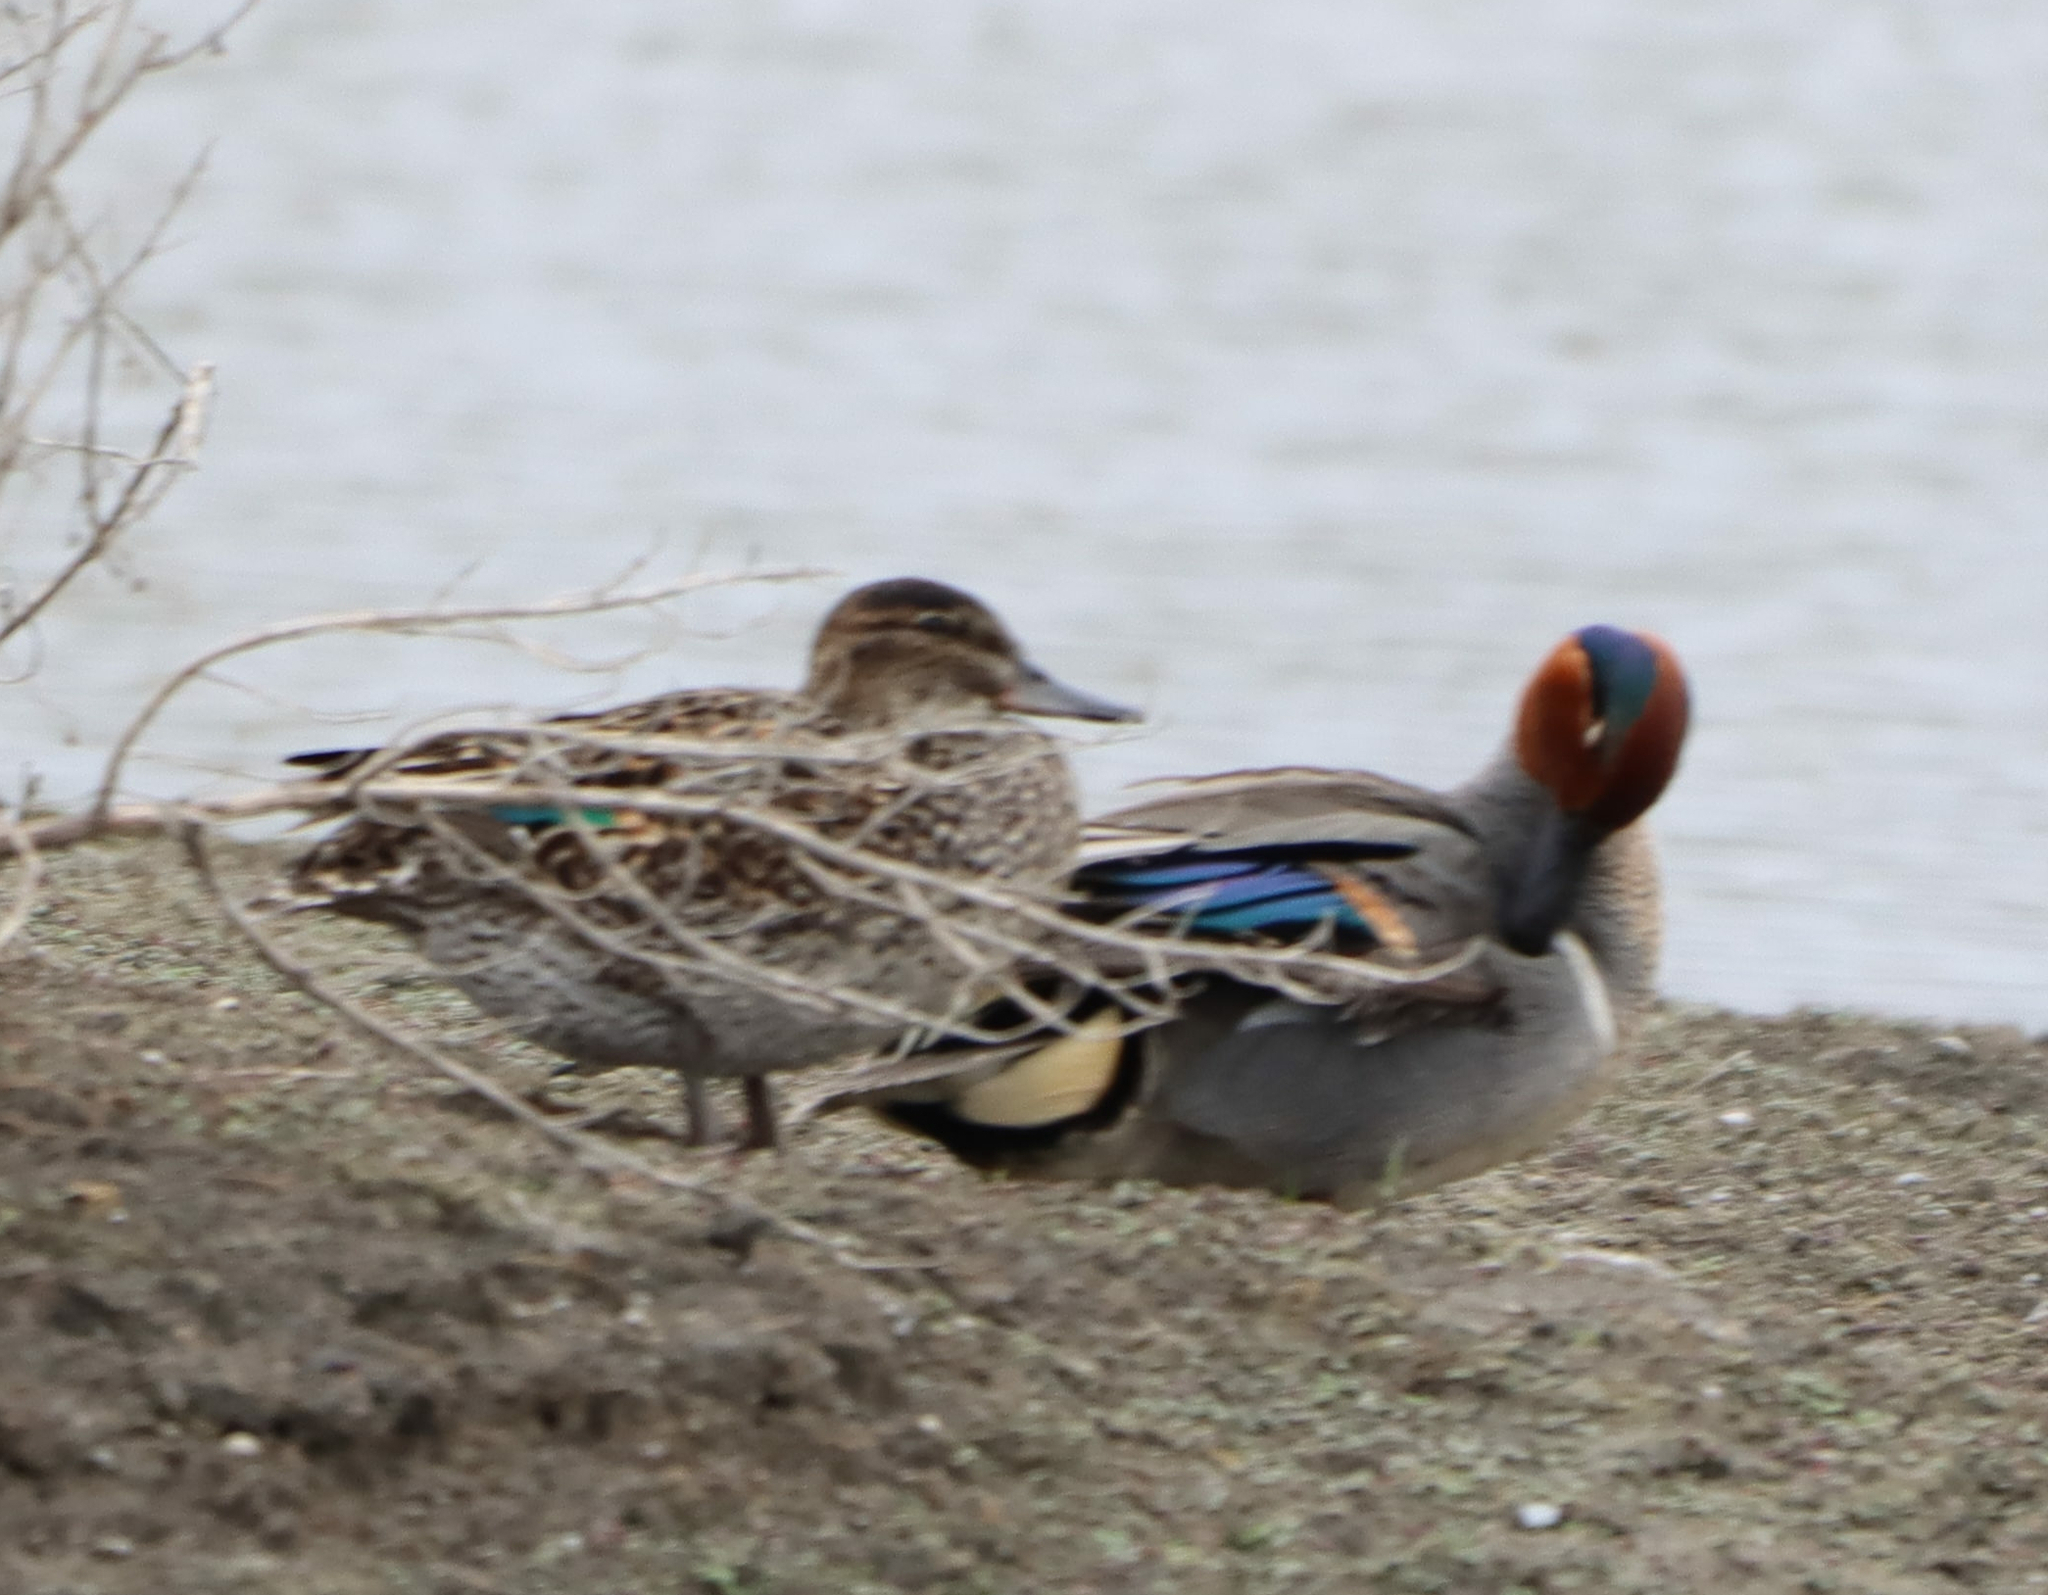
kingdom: Animalia
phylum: Chordata
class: Aves
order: Anseriformes
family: Anatidae
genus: Anas
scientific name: Anas crecca
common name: Eurasian teal
